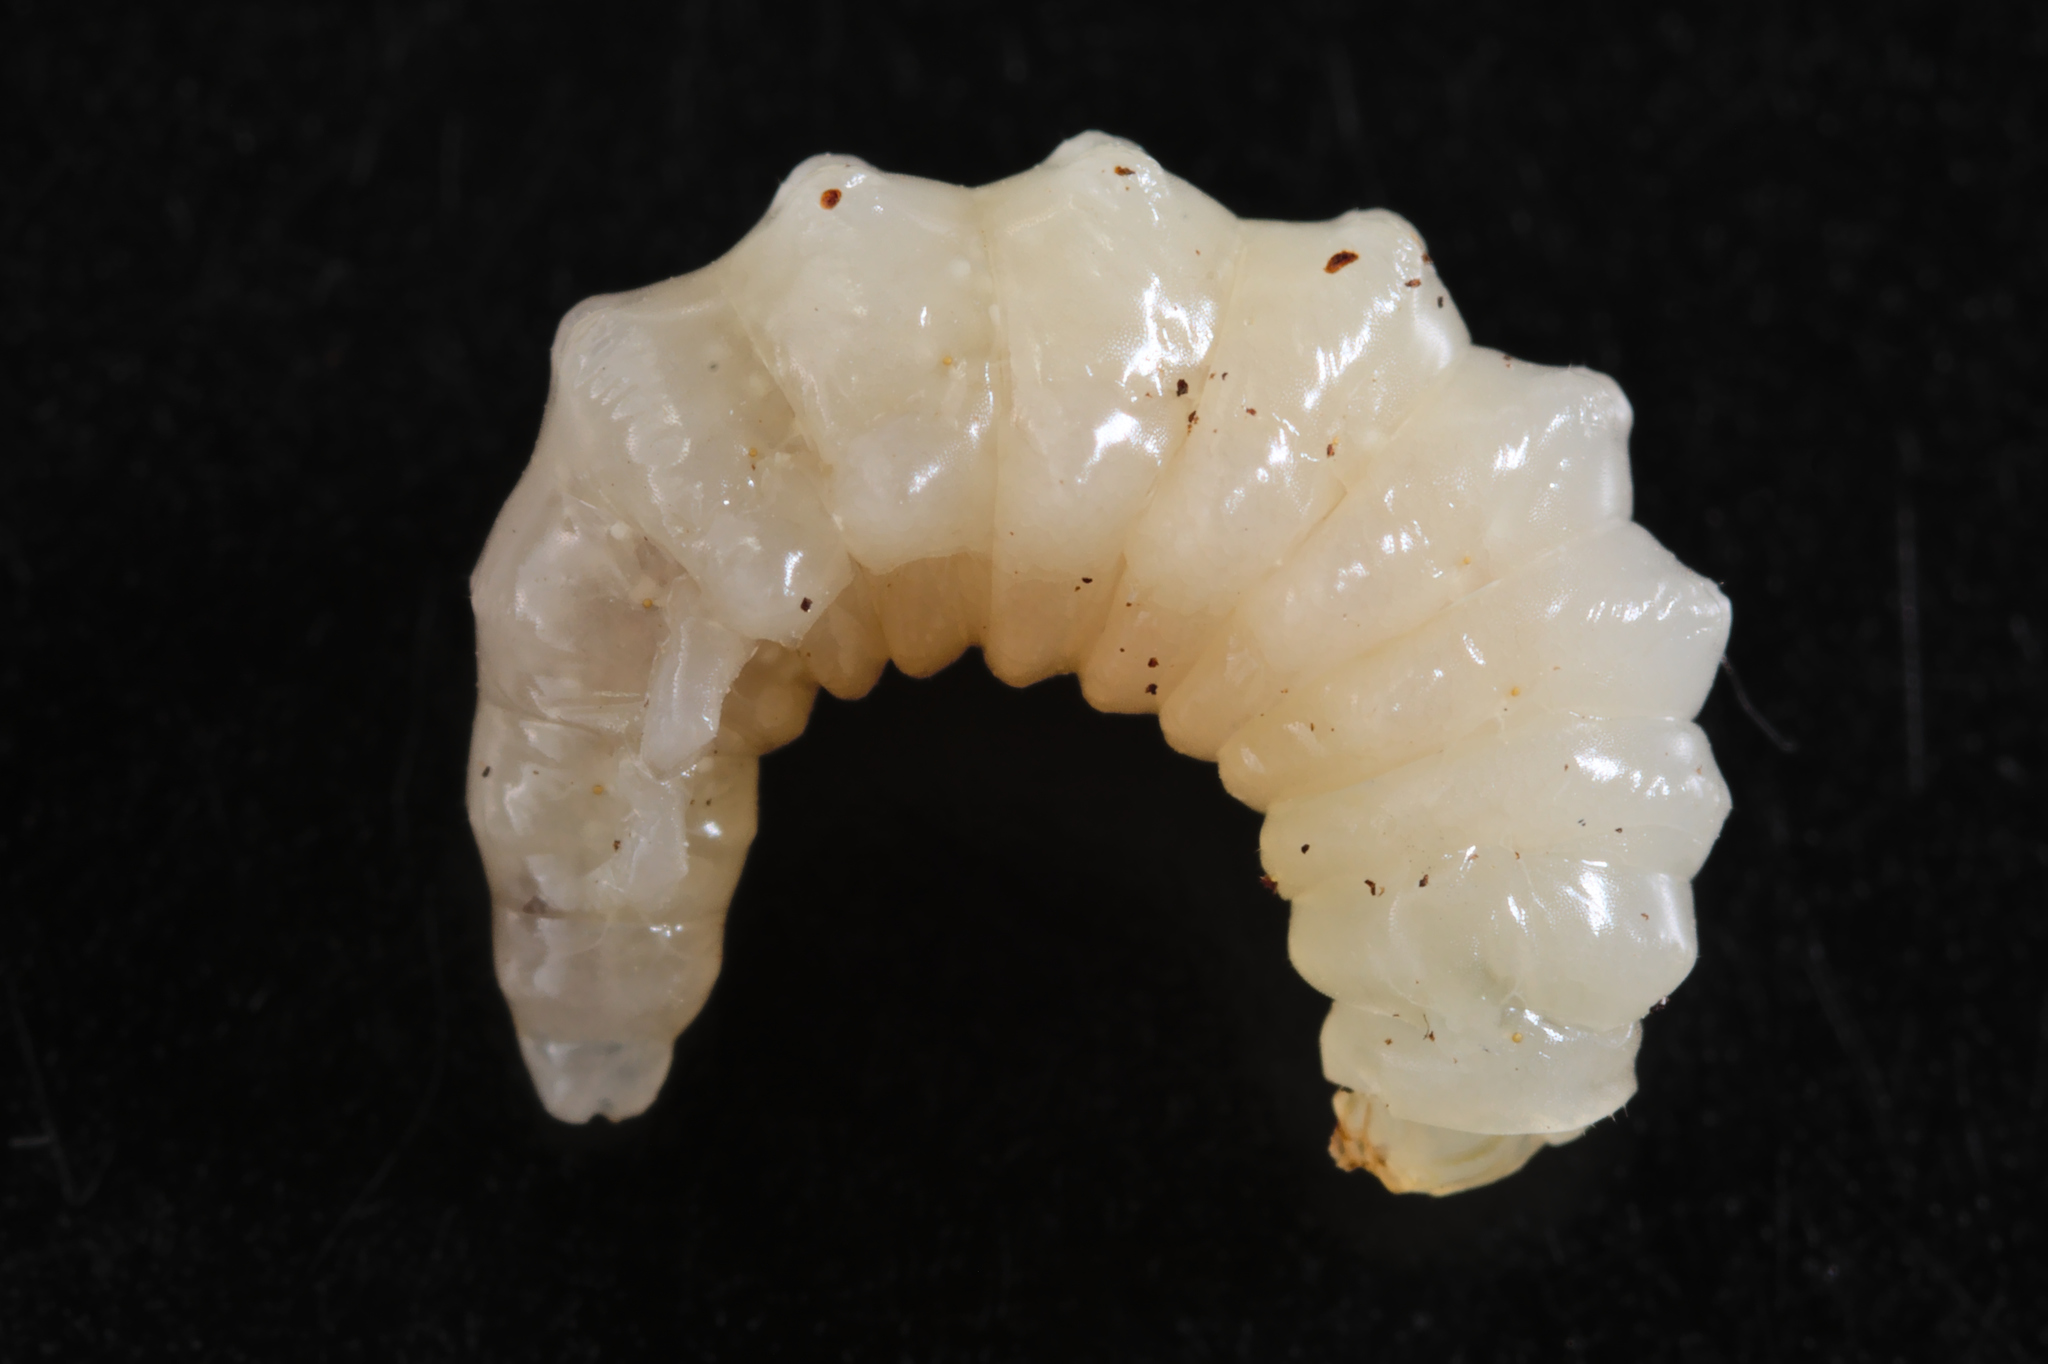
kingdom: Animalia
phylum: Arthropoda
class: Insecta
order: Hymenoptera
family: Ichneumonidae
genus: Dolichomitus
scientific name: Dolichomitus mesocentrus
